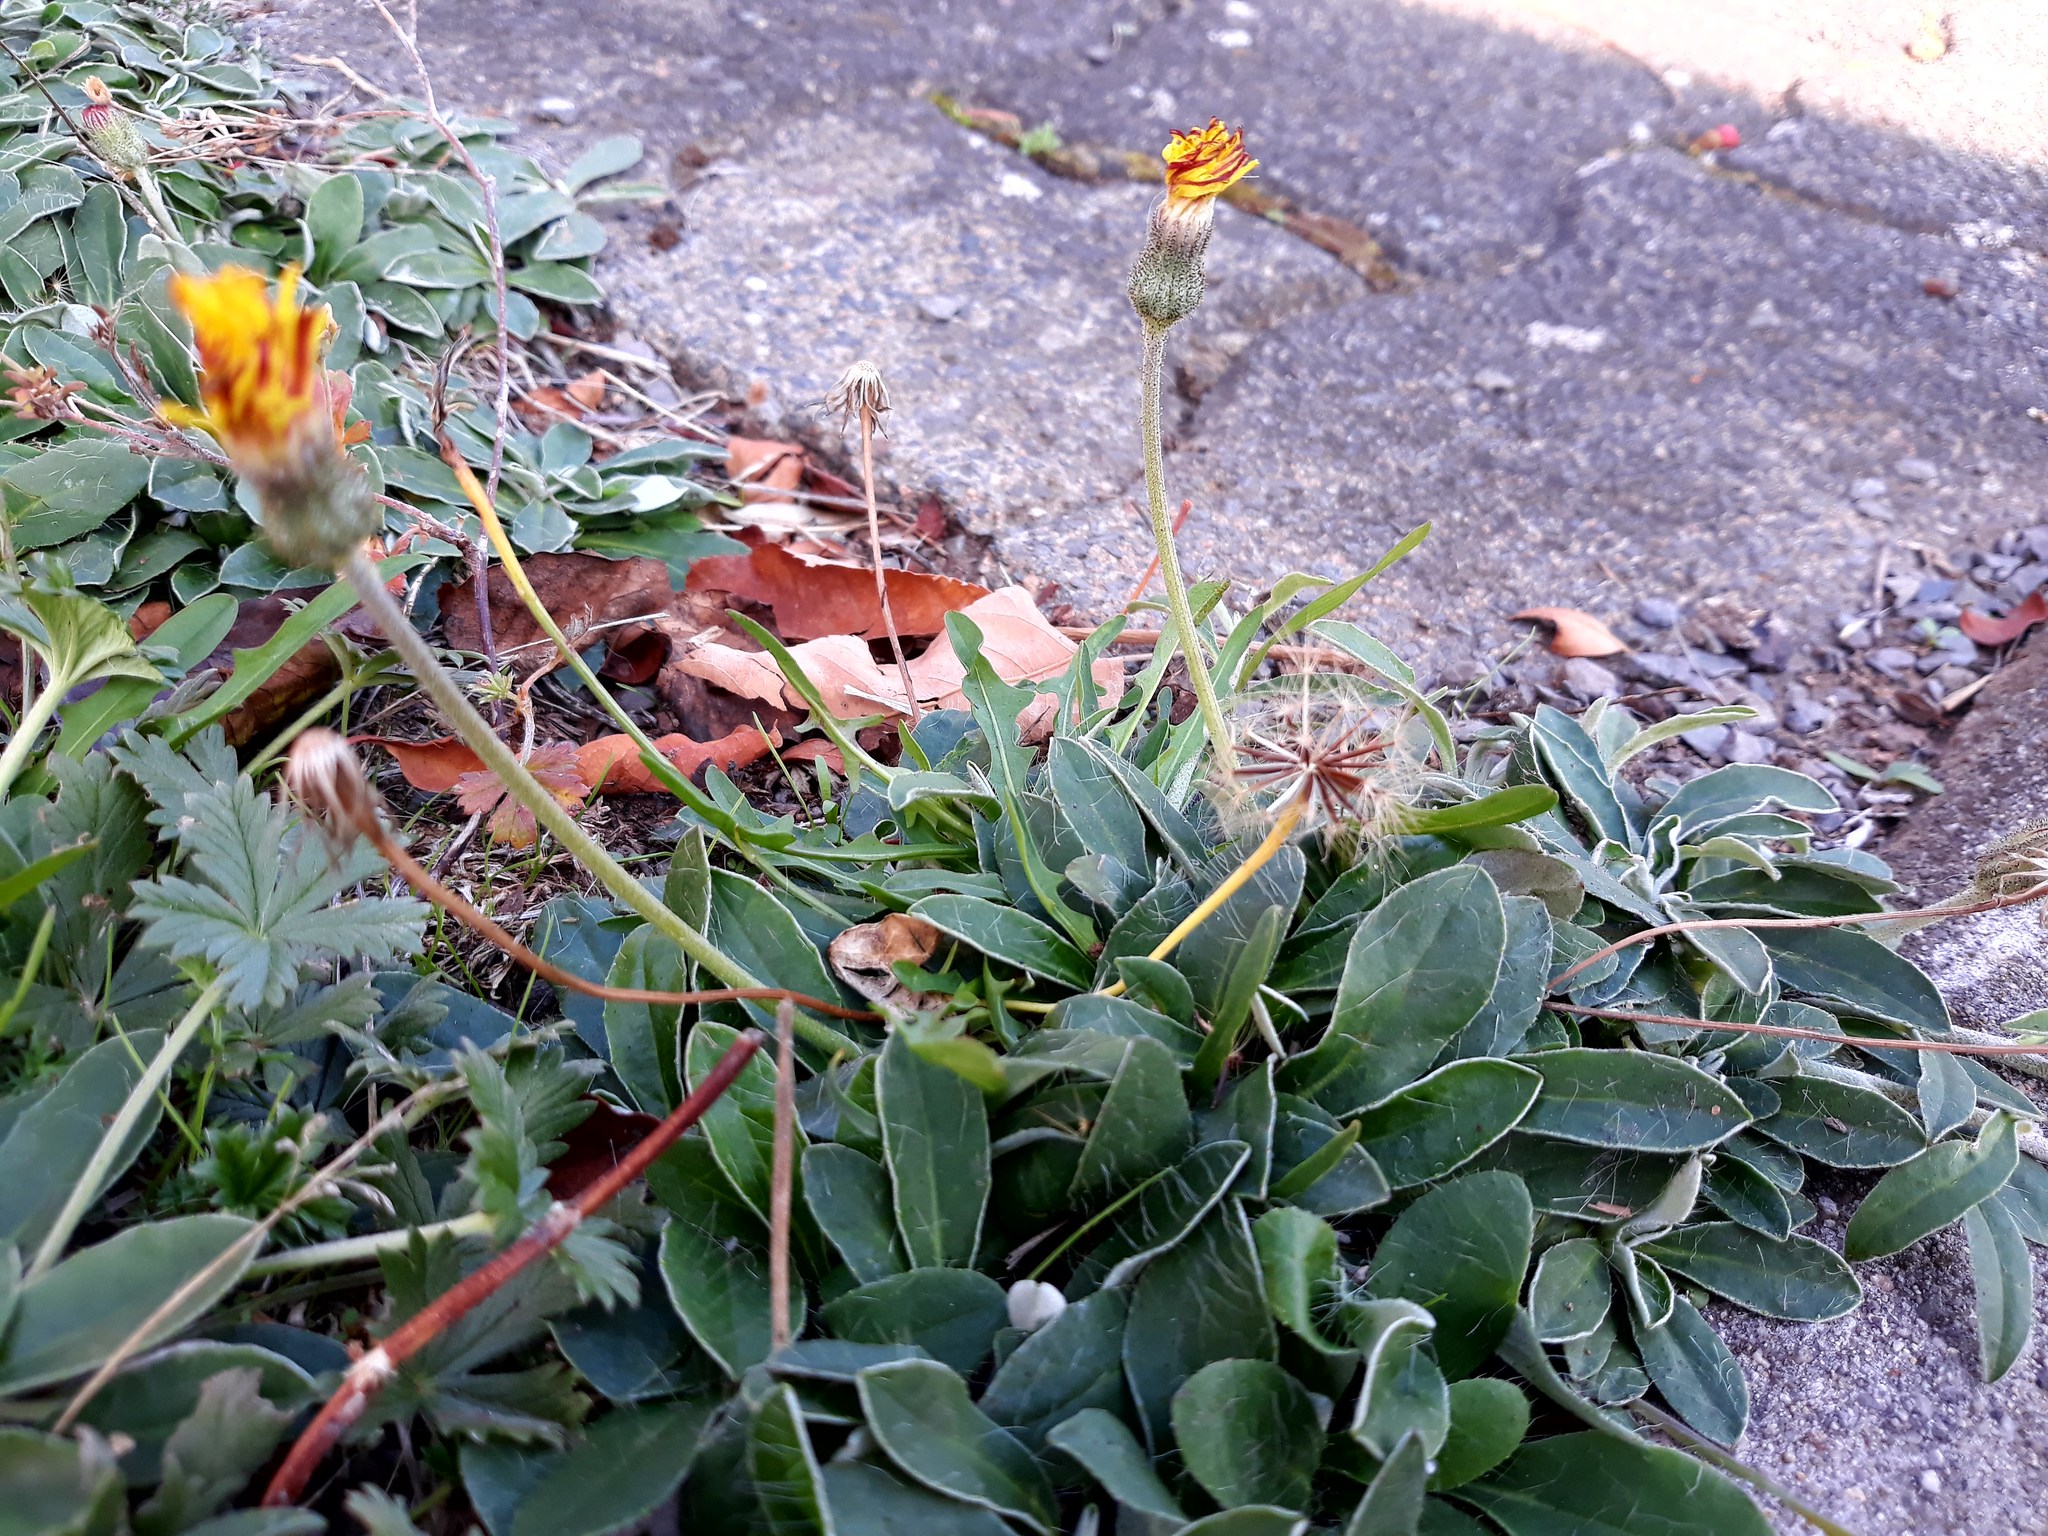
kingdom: Plantae
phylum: Tracheophyta
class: Magnoliopsida
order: Asterales
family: Asteraceae
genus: Pilosella
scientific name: Pilosella officinarum
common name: Mouse-ear hawkweed
